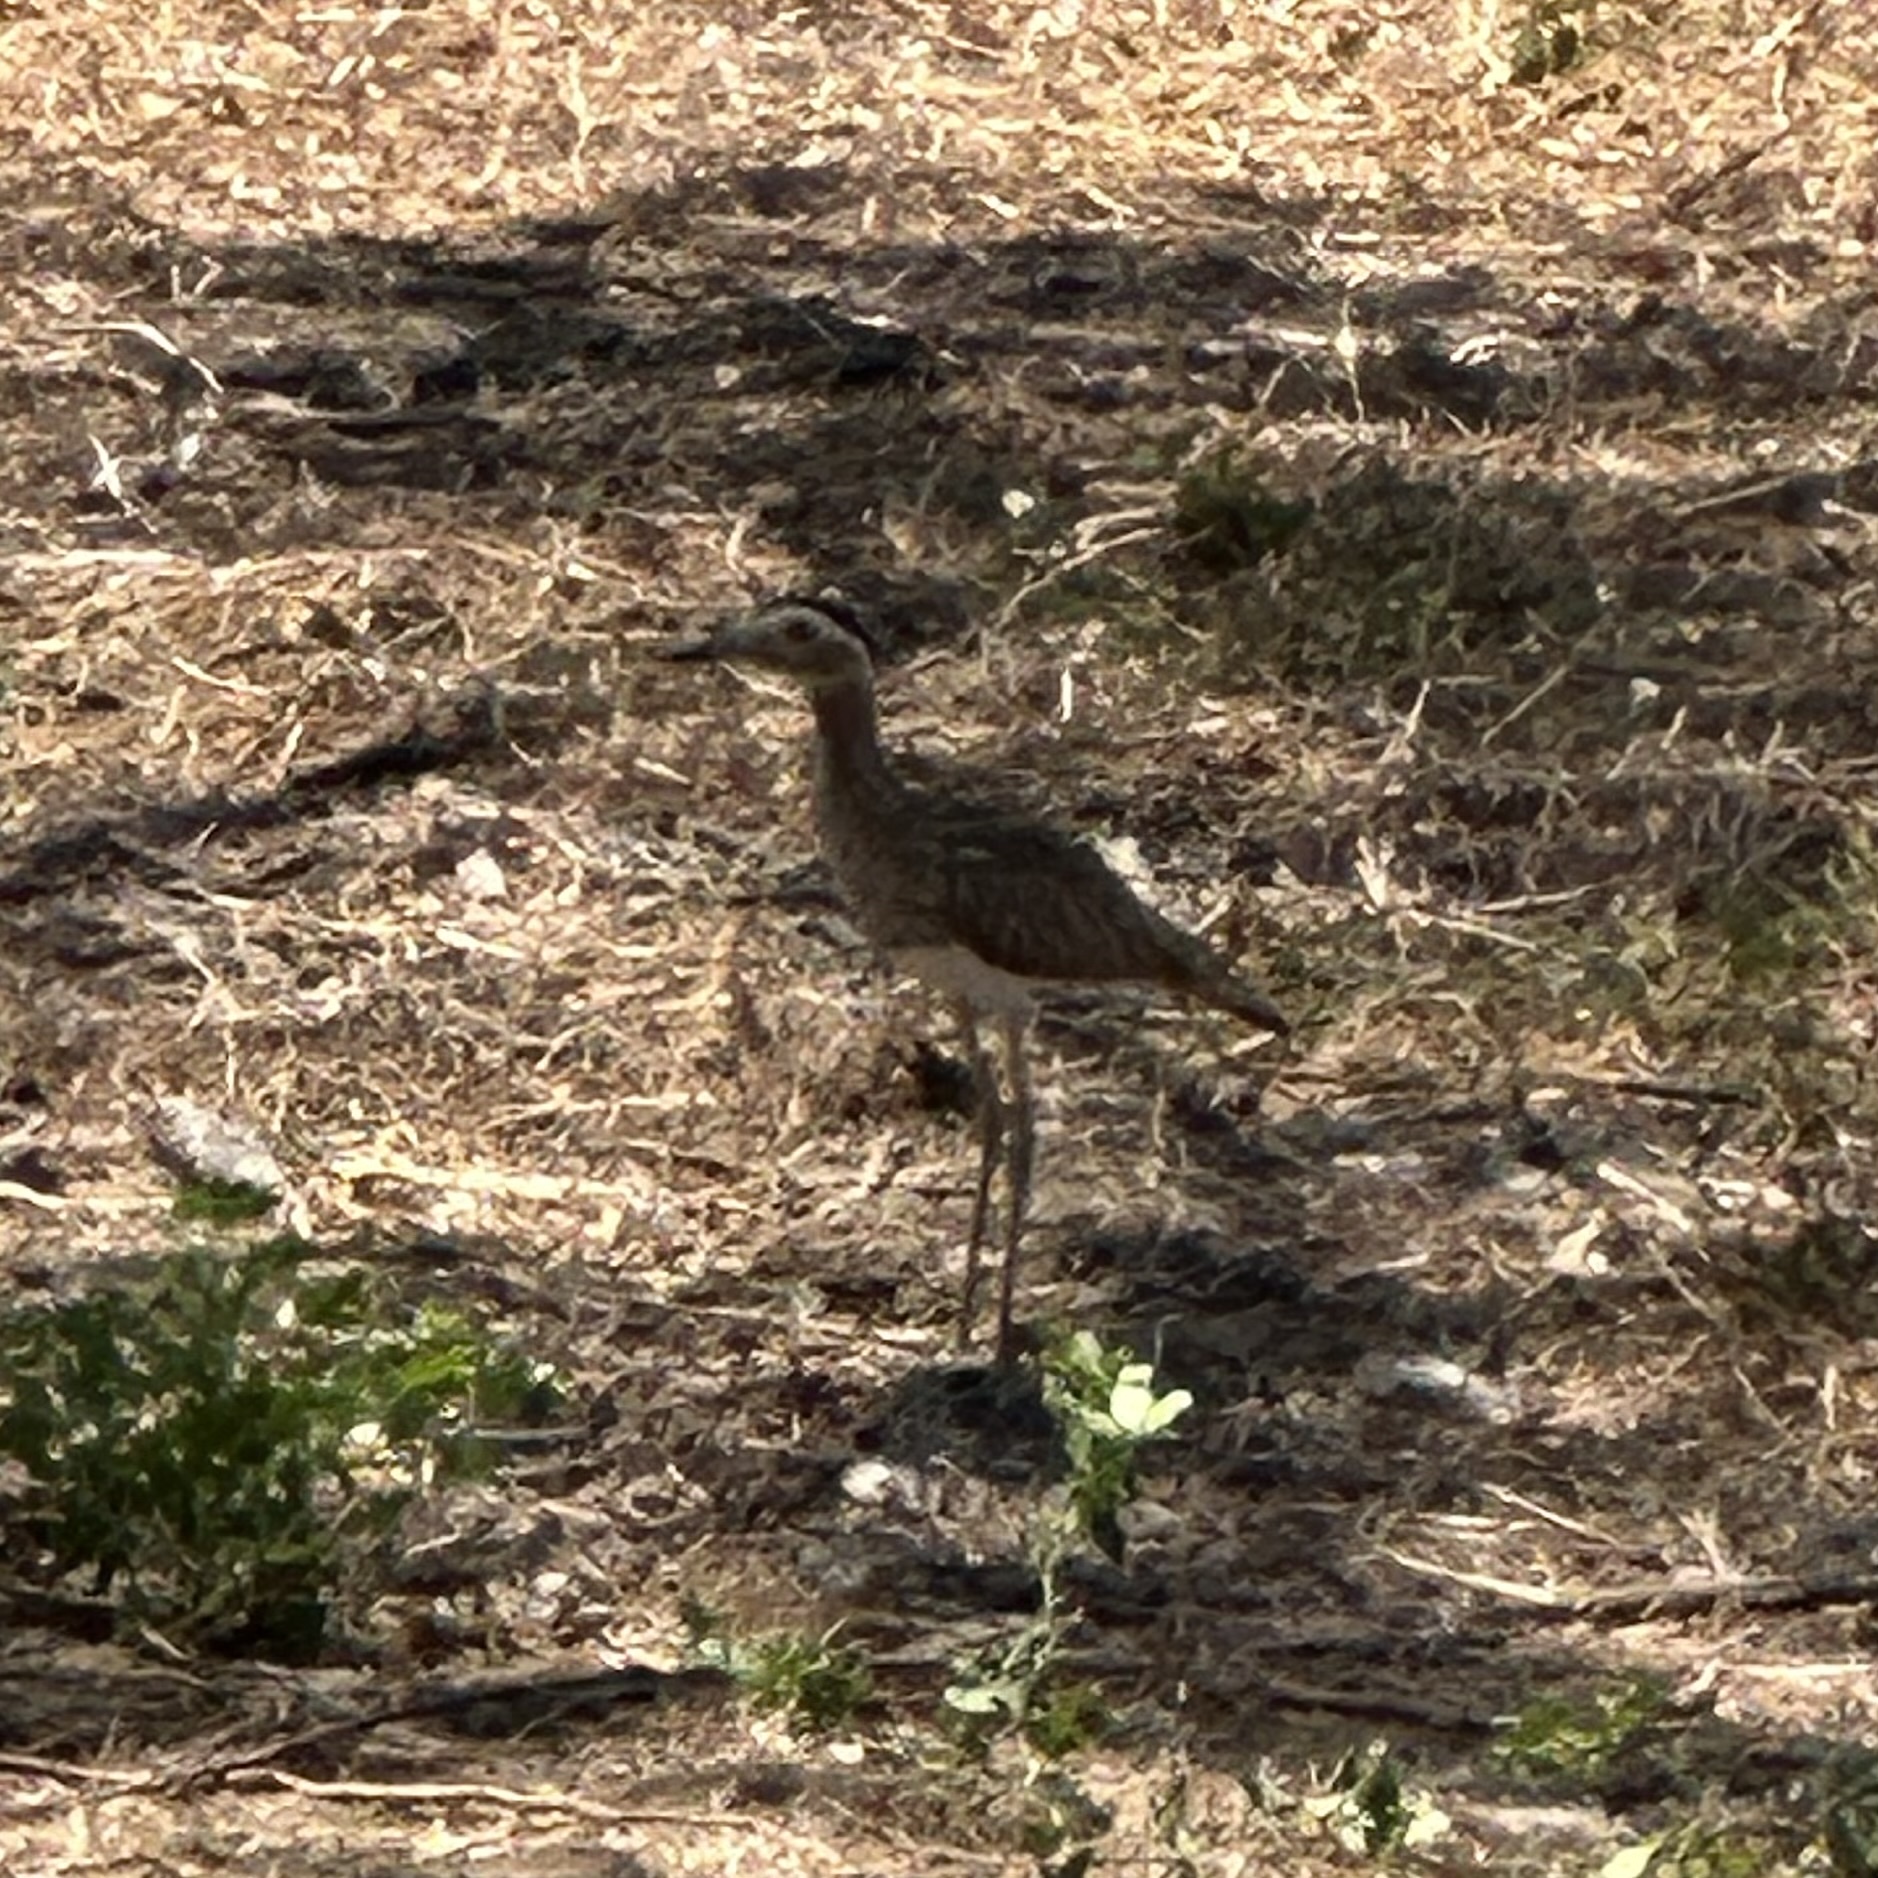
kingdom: Animalia
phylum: Chordata
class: Aves
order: Charadriiformes
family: Burhinidae
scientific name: Burhinidae
